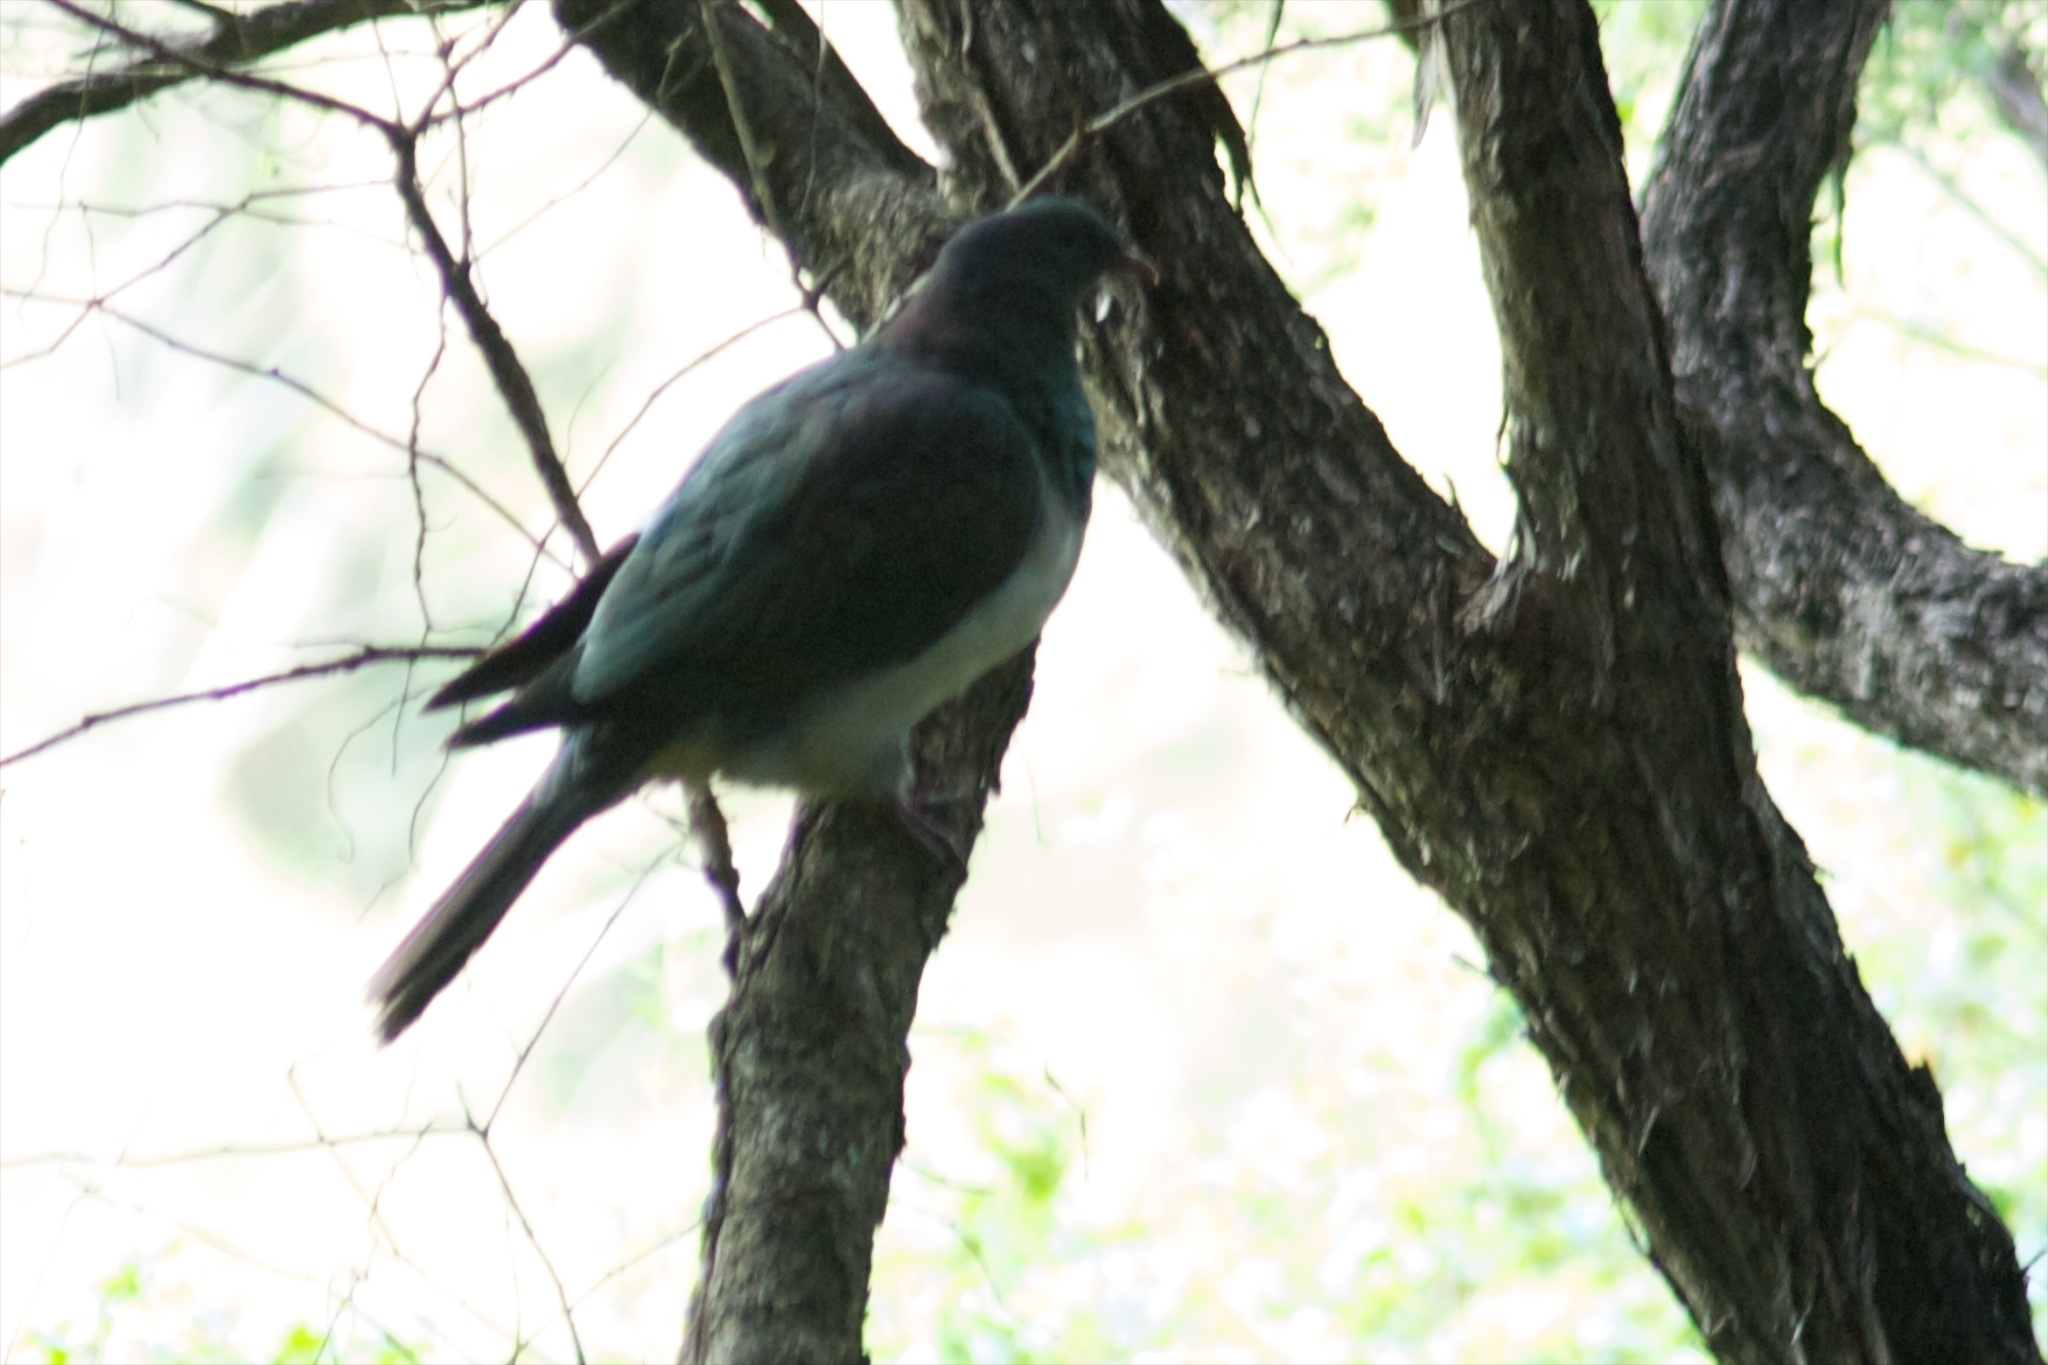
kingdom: Animalia
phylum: Chordata
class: Aves
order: Columbiformes
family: Columbidae
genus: Hemiphaga
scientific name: Hemiphaga novaeseelandiae
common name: New zealand pigeon
